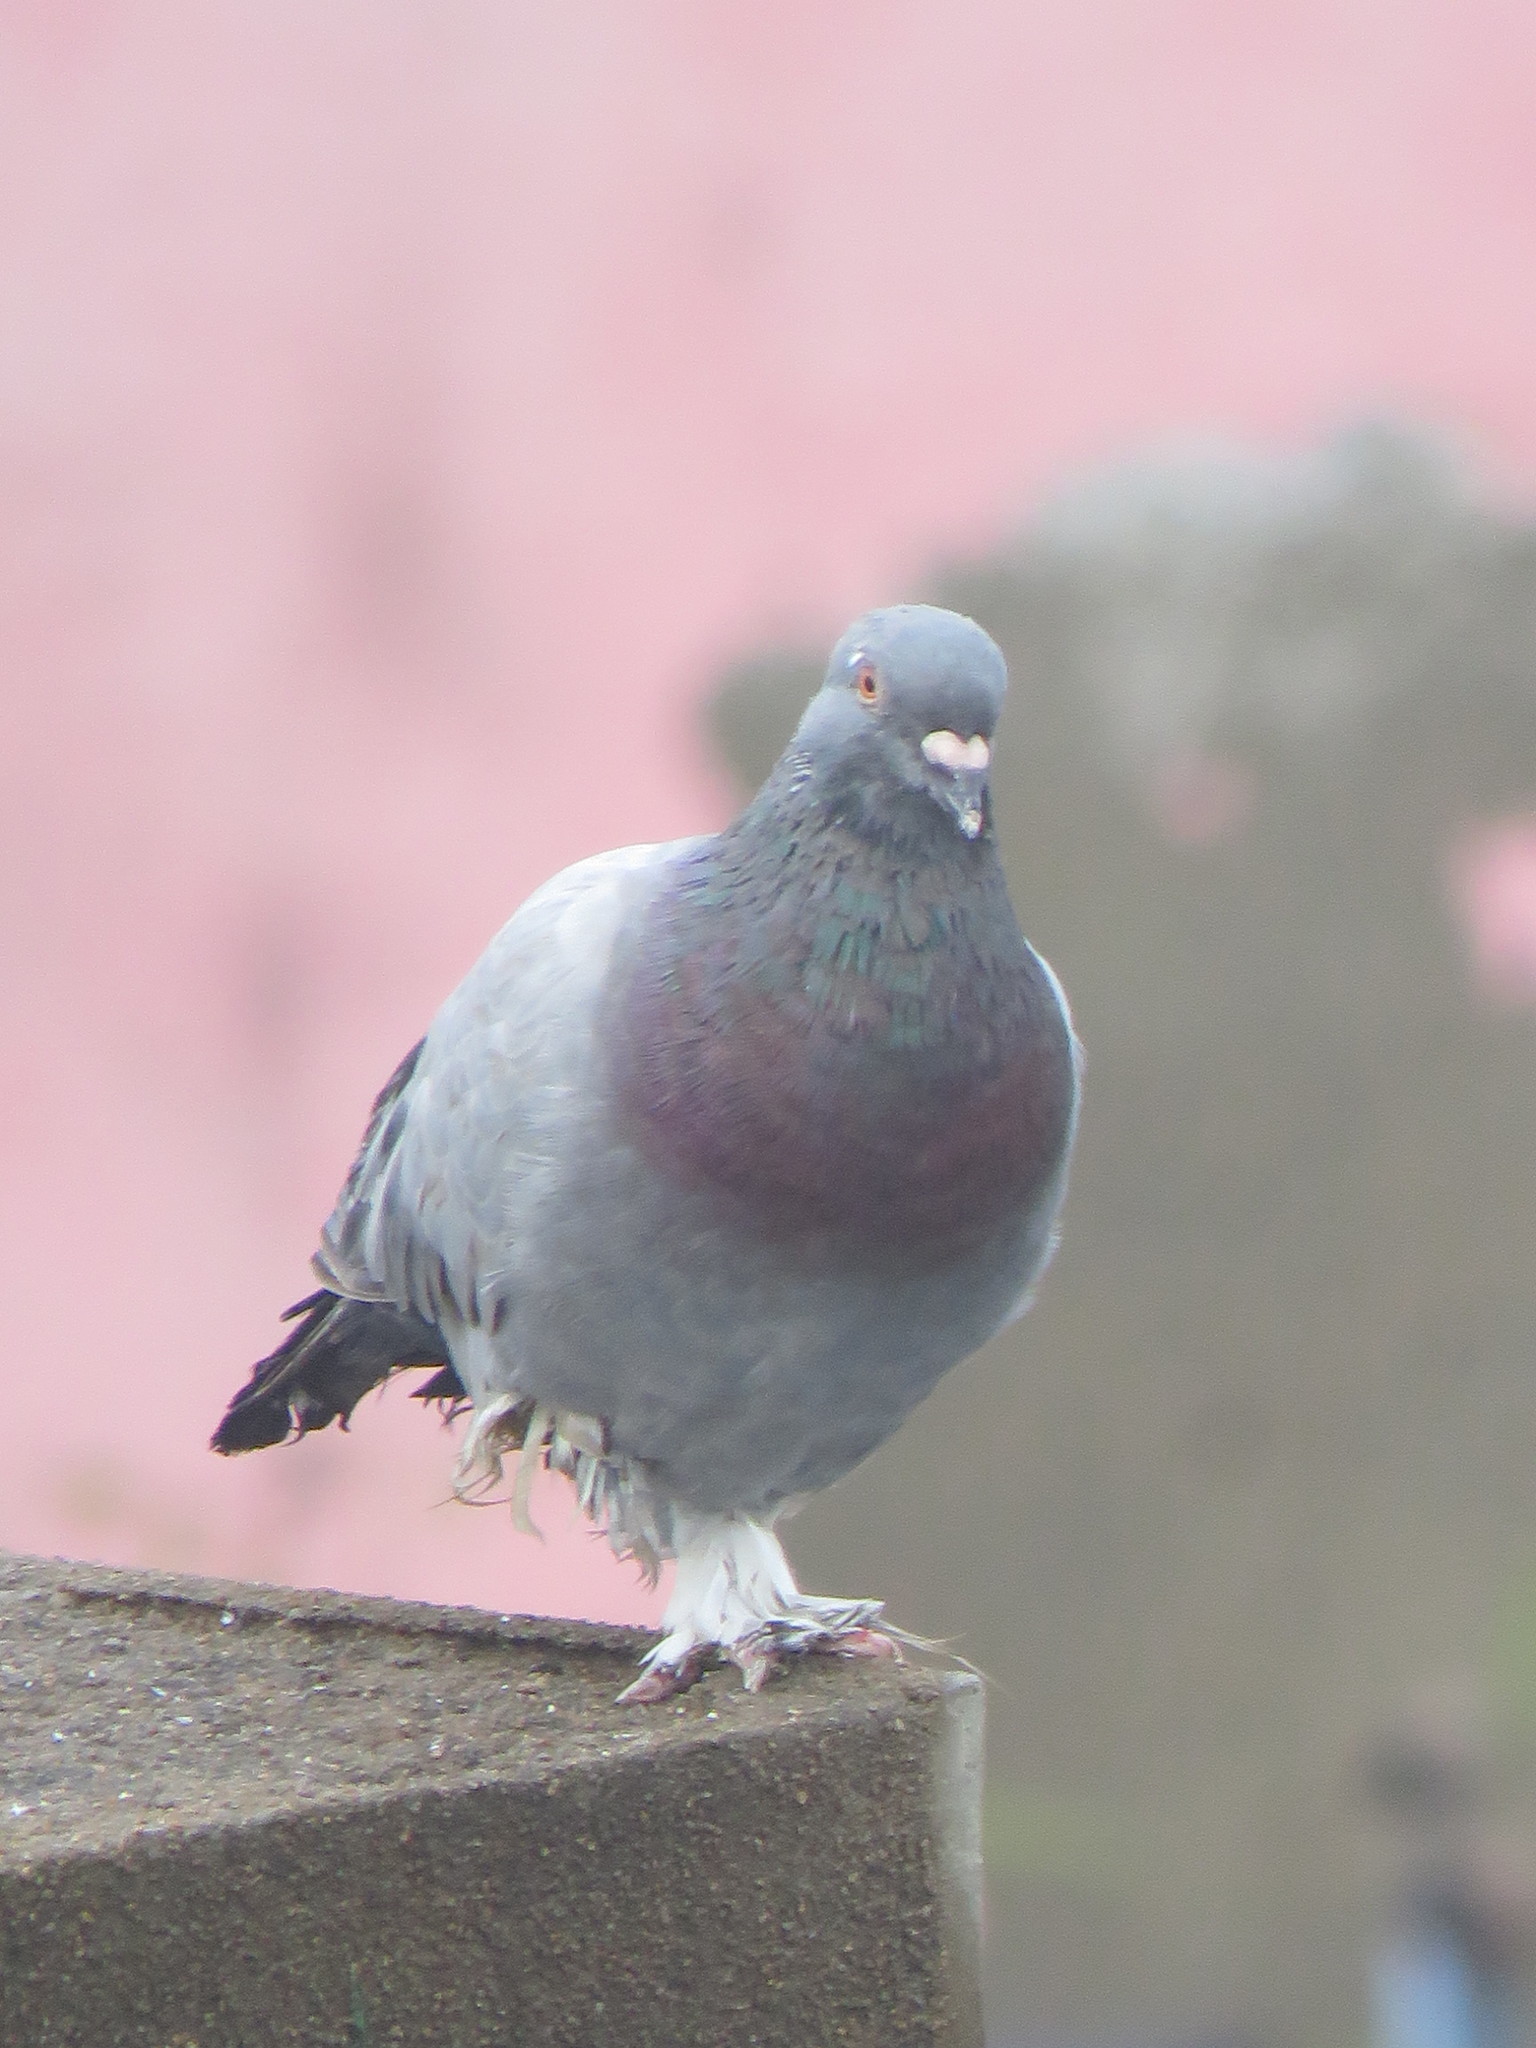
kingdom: Animalia
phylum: Chordata
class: Aves
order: Columbiformes
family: Columbidae
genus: Columba
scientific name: Columba livia
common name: Rock pigeon
